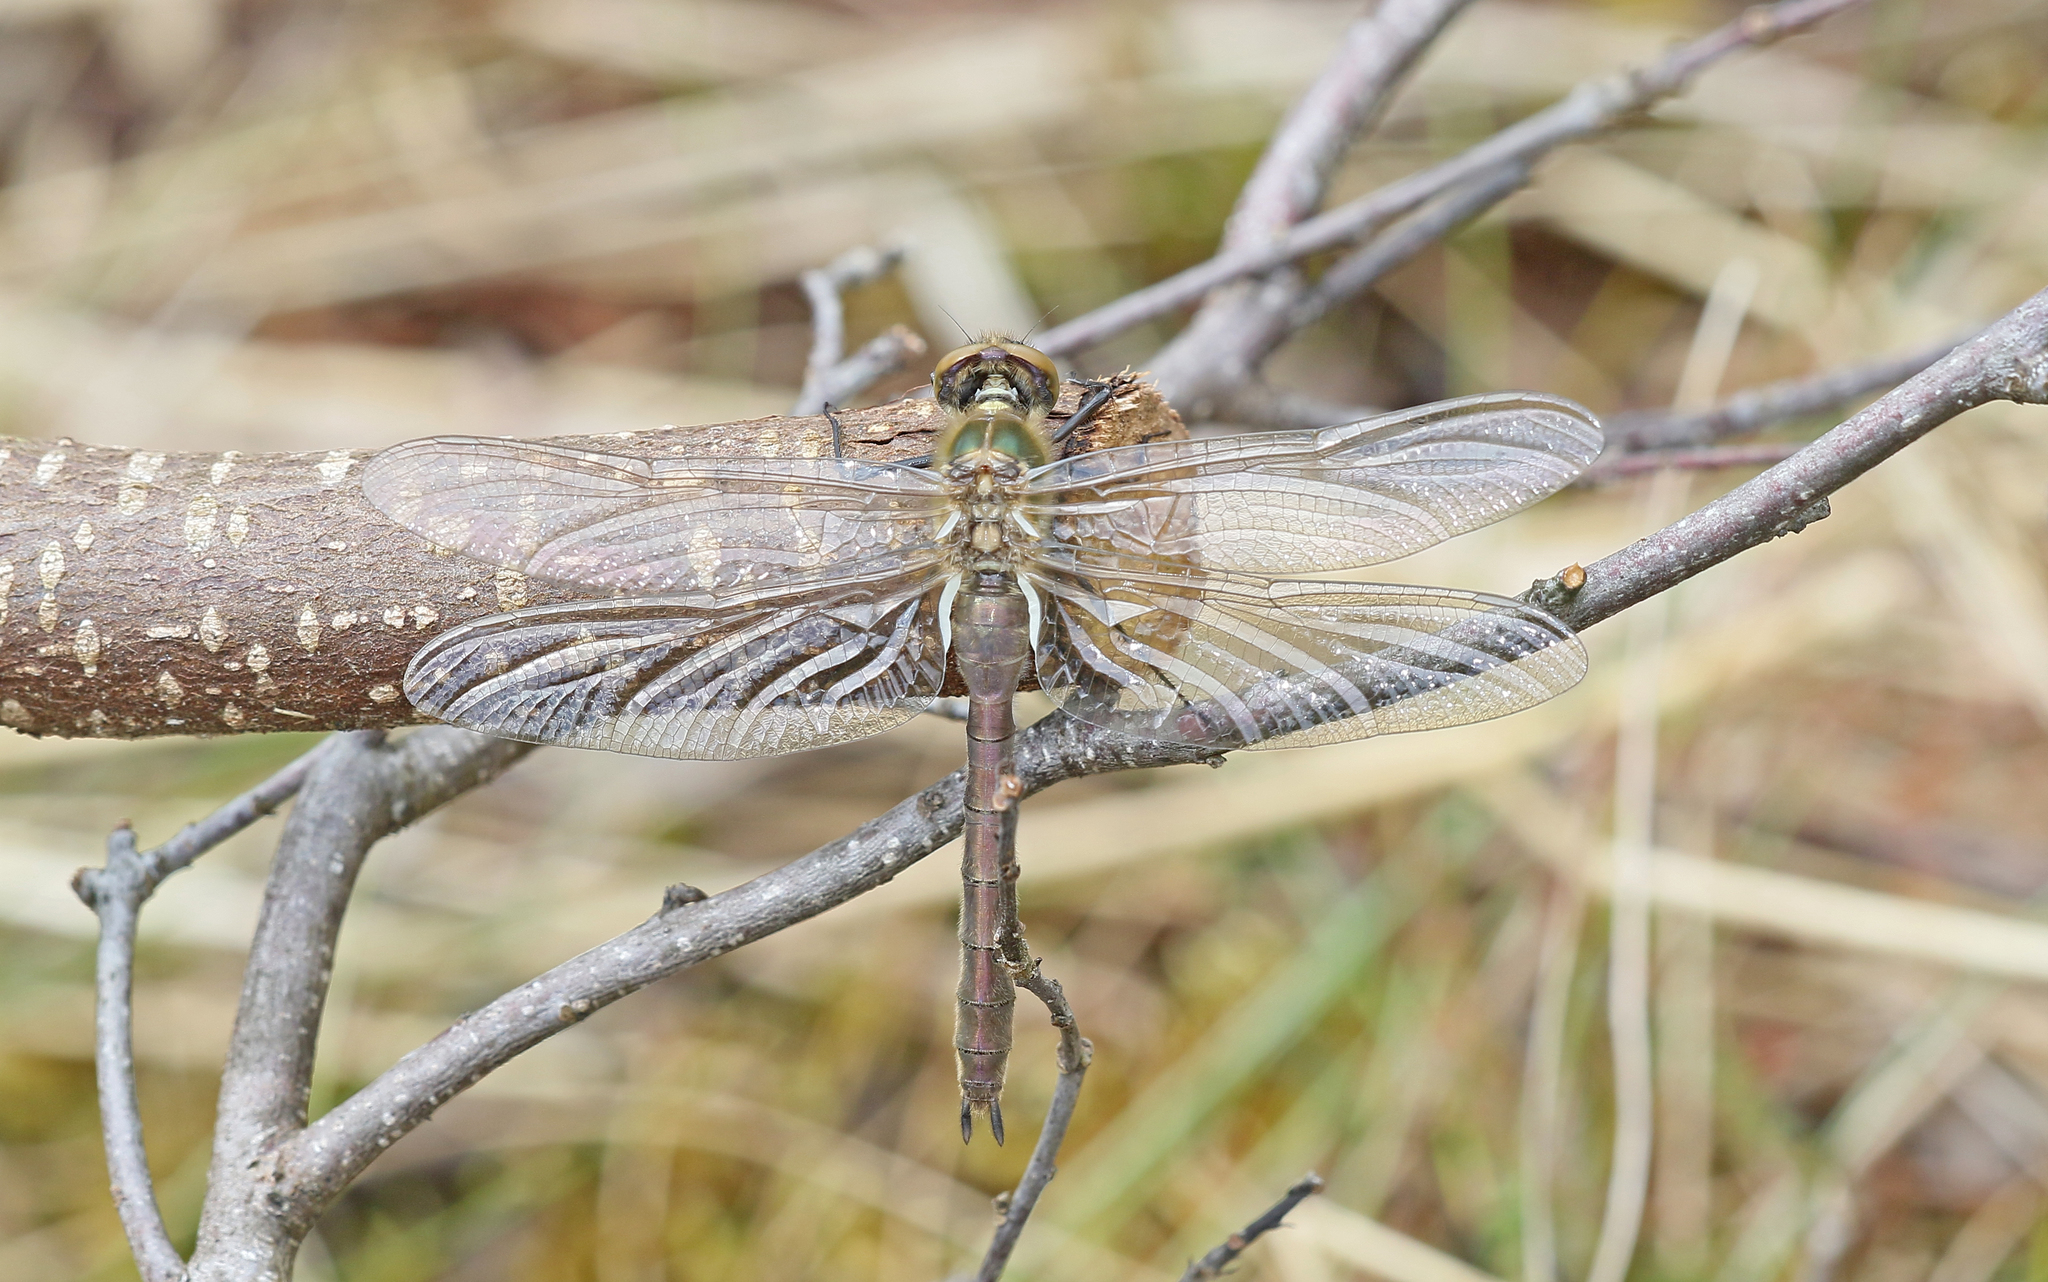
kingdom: Animalia
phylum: Arthropoda
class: Insecta
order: Odonata
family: Corduliidae
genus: Cordulia
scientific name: Cordulia aenea
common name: Downy emerald
